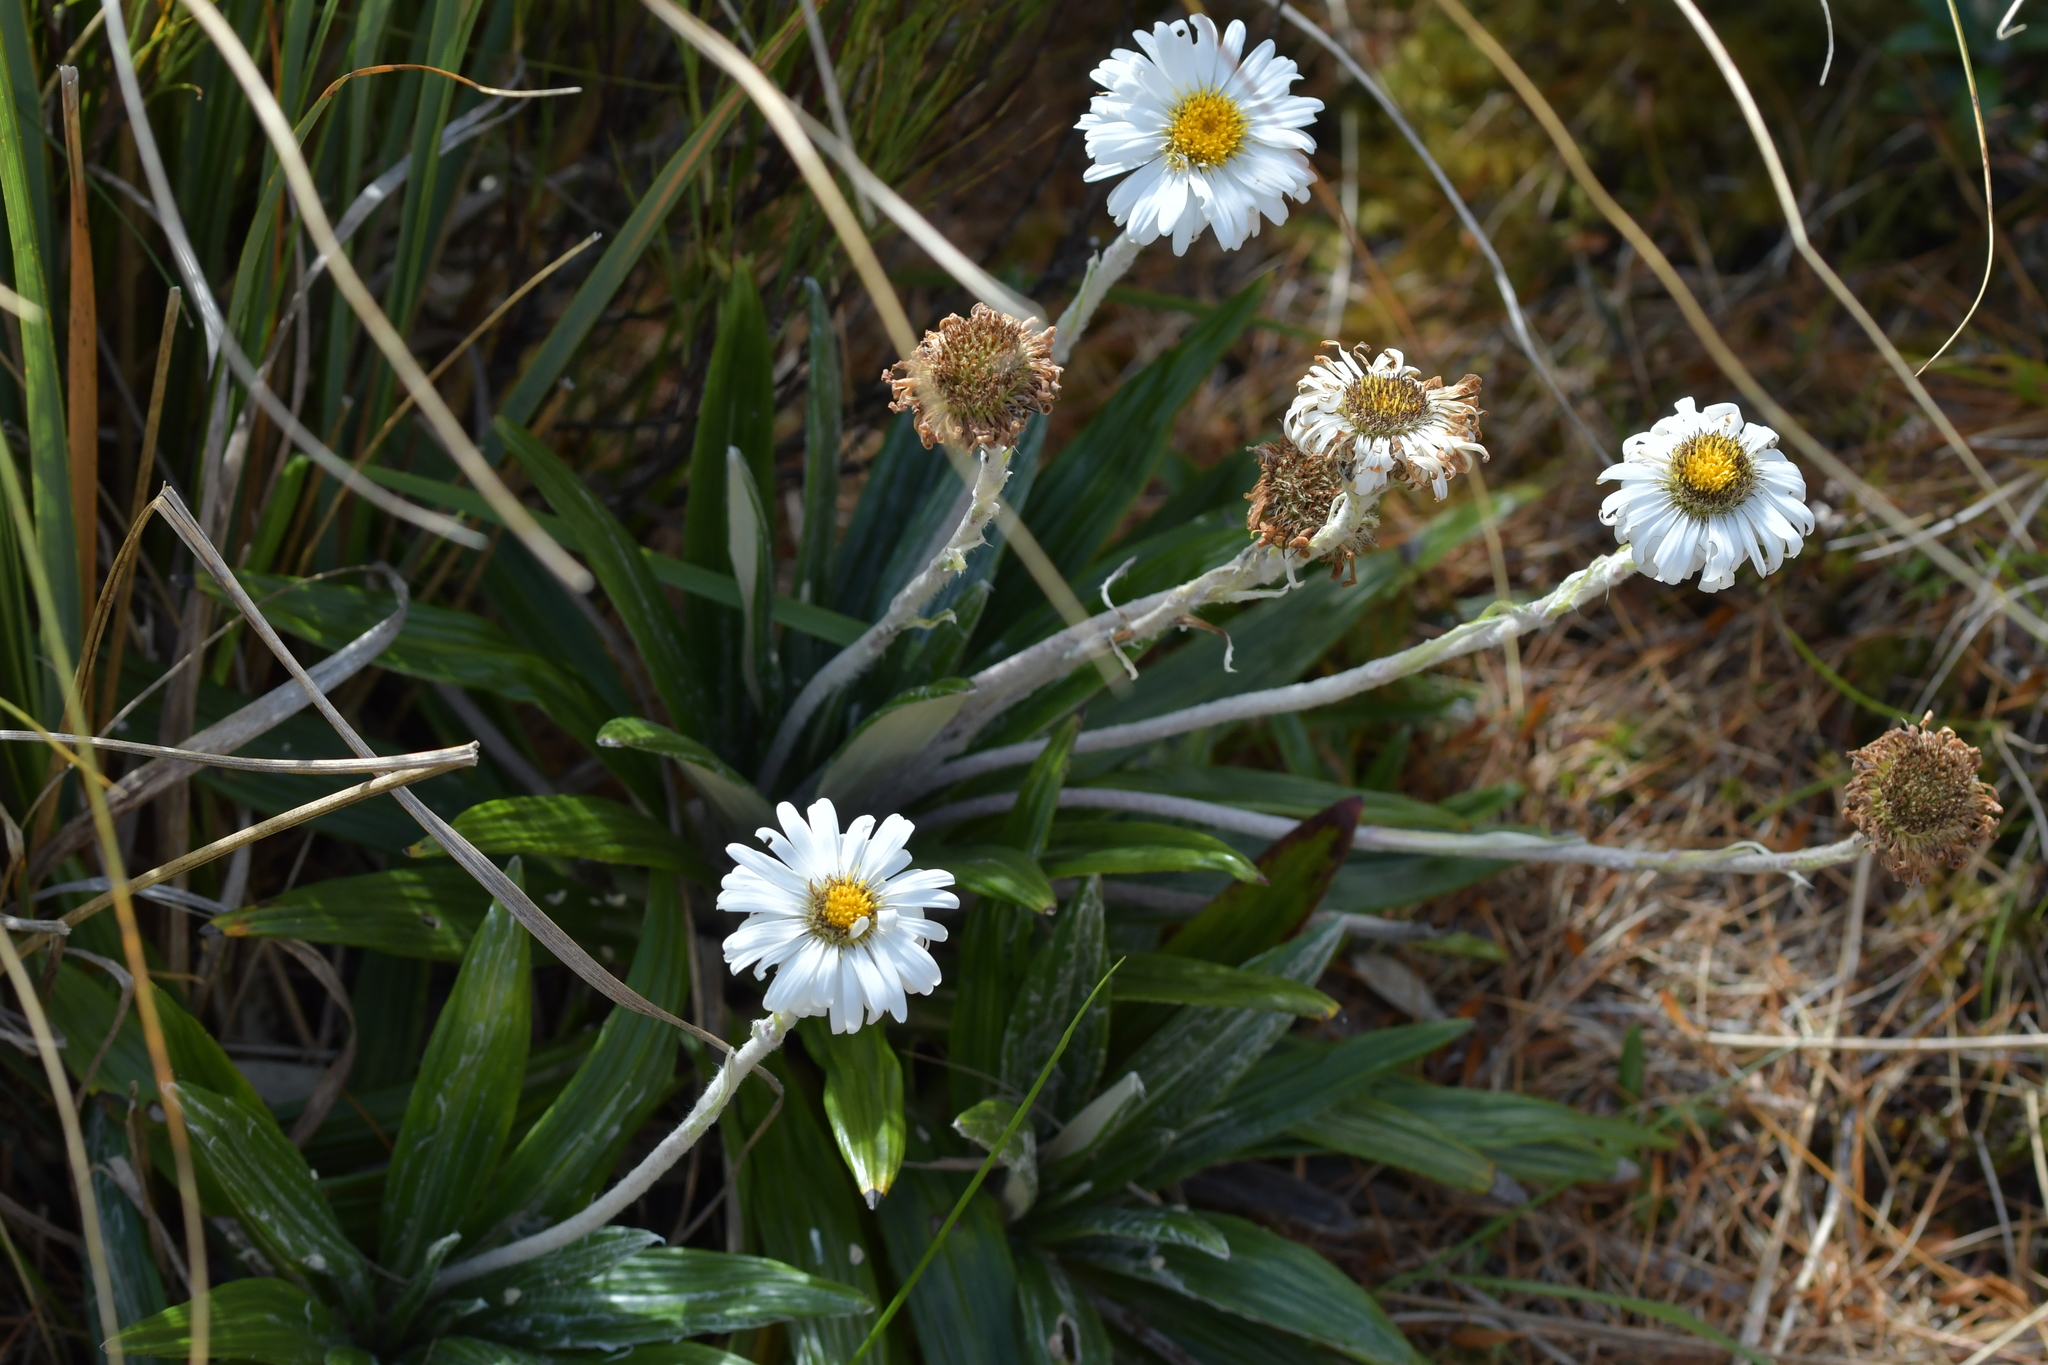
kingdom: Plantae
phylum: Tracheophyta
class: Magnoliopsida
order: Asterales
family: Asteraceae
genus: Celmisia
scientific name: Celmisia spectabilis
